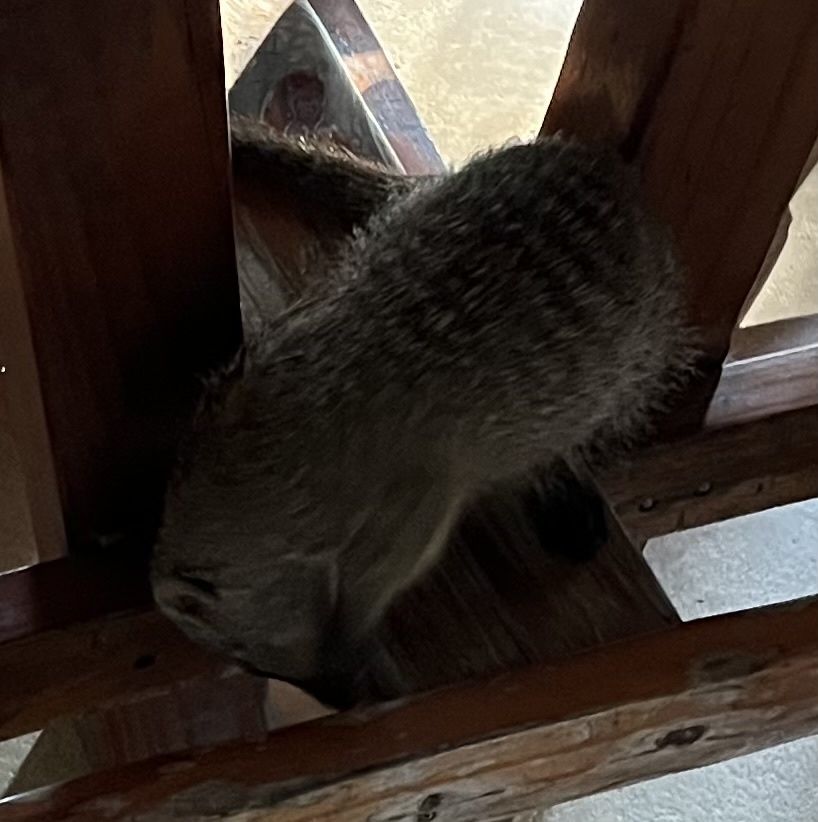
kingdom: Animalia
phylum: Chordata
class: Mammalia
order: Carnivora
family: Herpestidae
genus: Mungos
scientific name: Mungos mungo
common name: Banded mongoose
